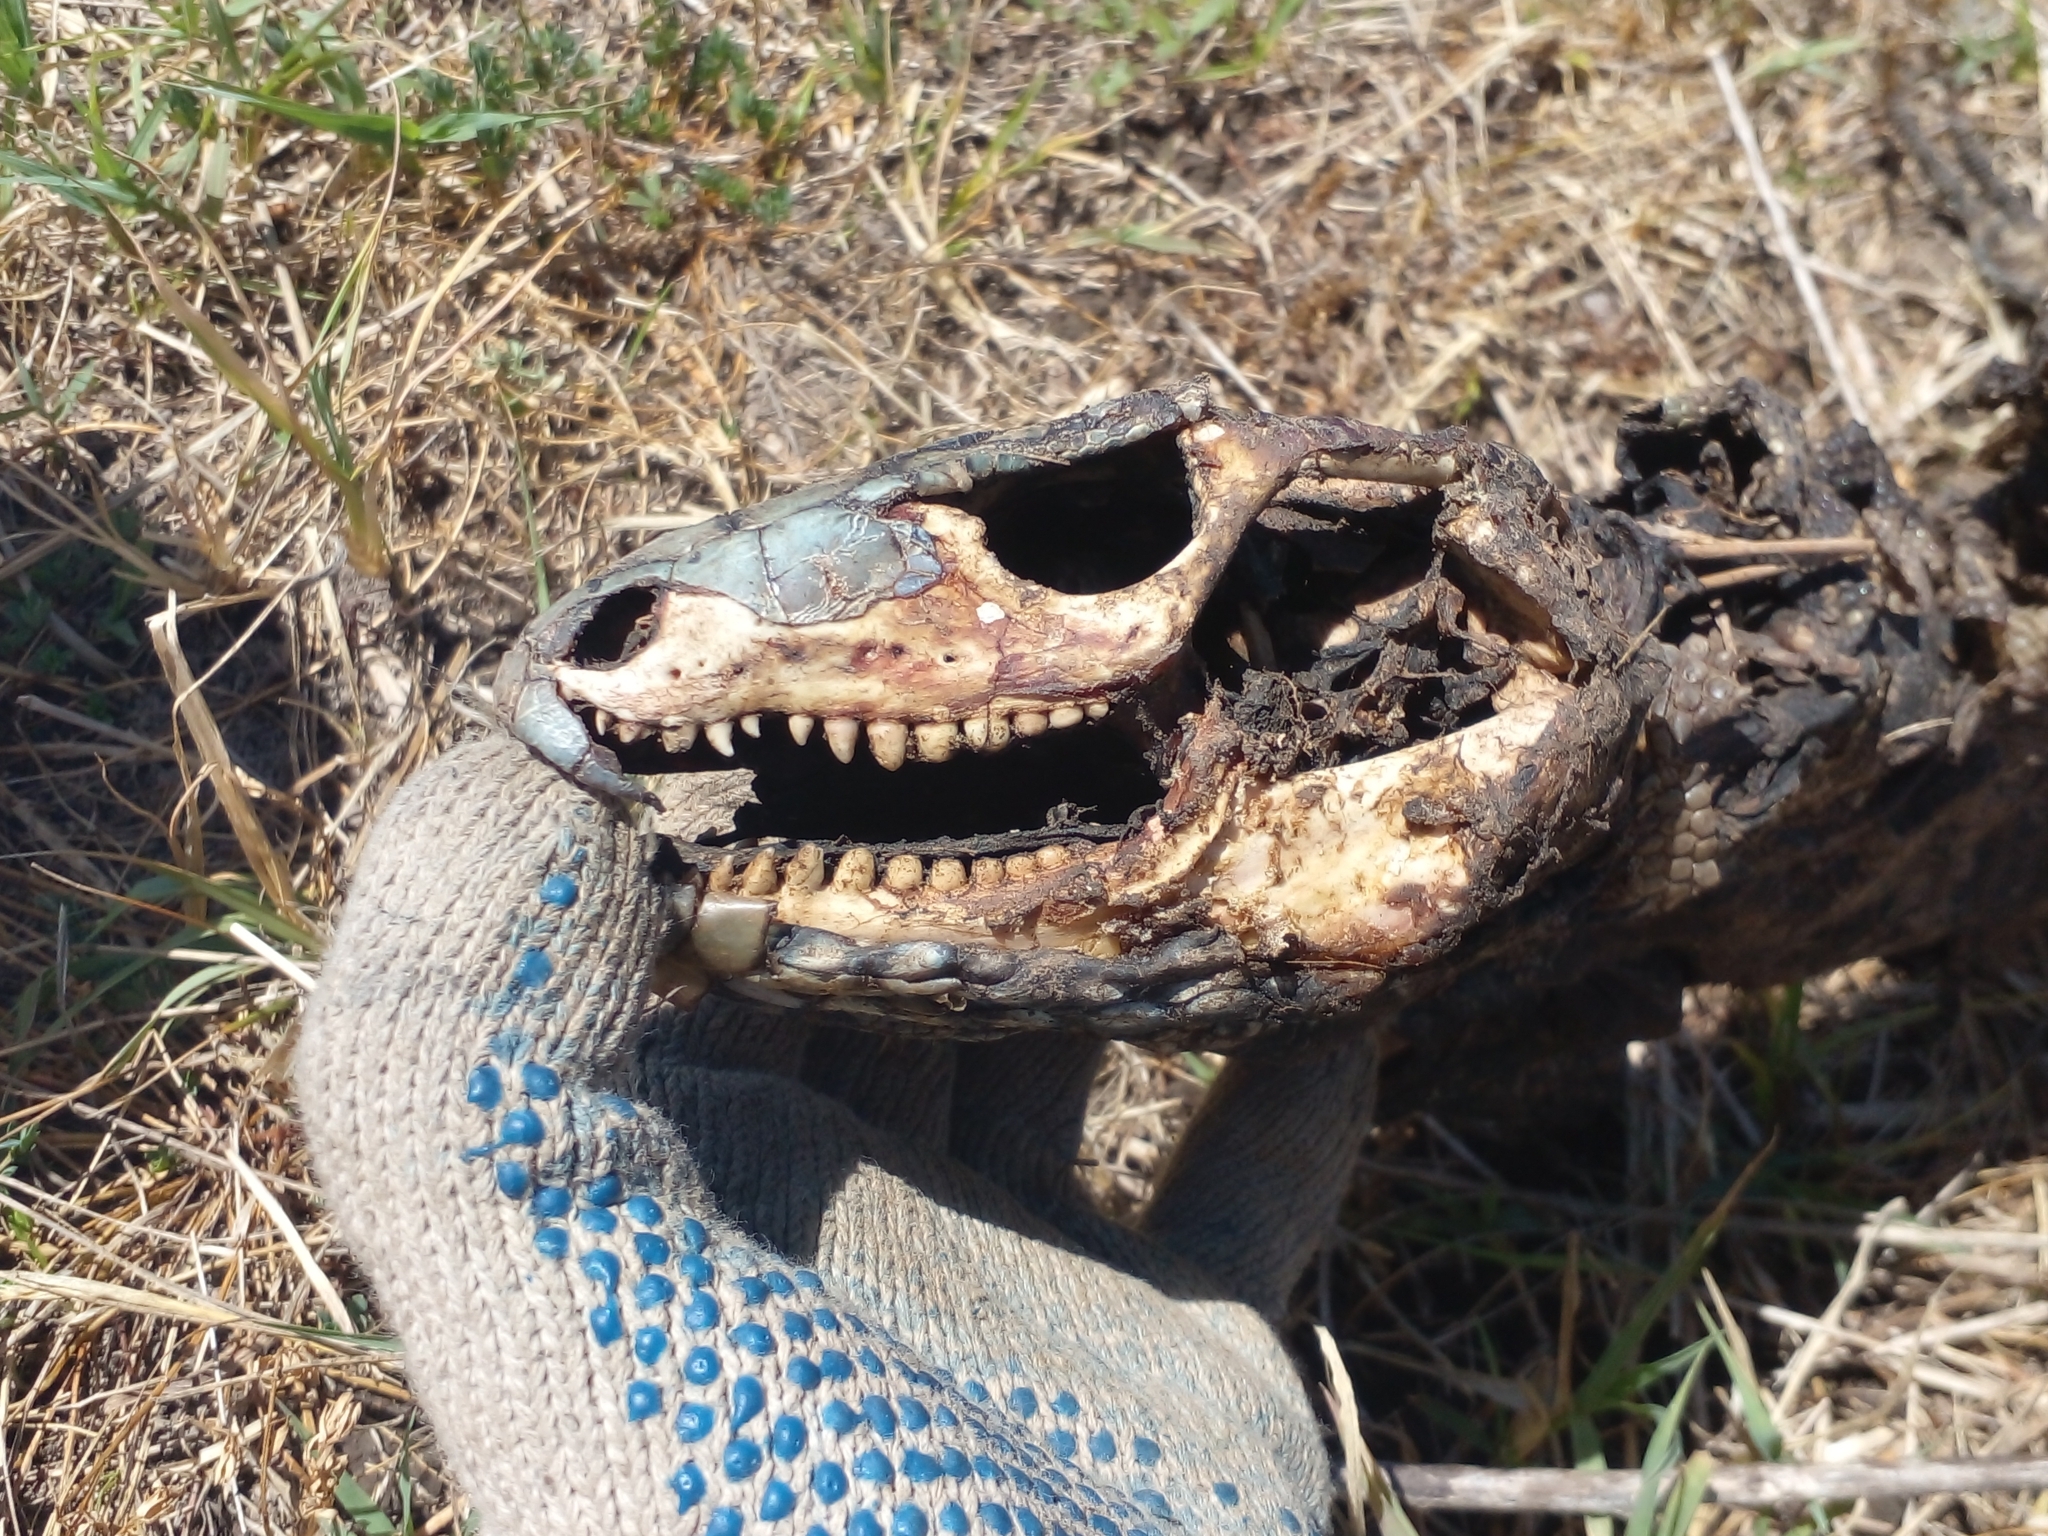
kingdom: Animalia
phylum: Chordata
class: Squamata
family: Teiidae
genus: Salvator
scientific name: Salvator merianae
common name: Argentine black and white tegu
